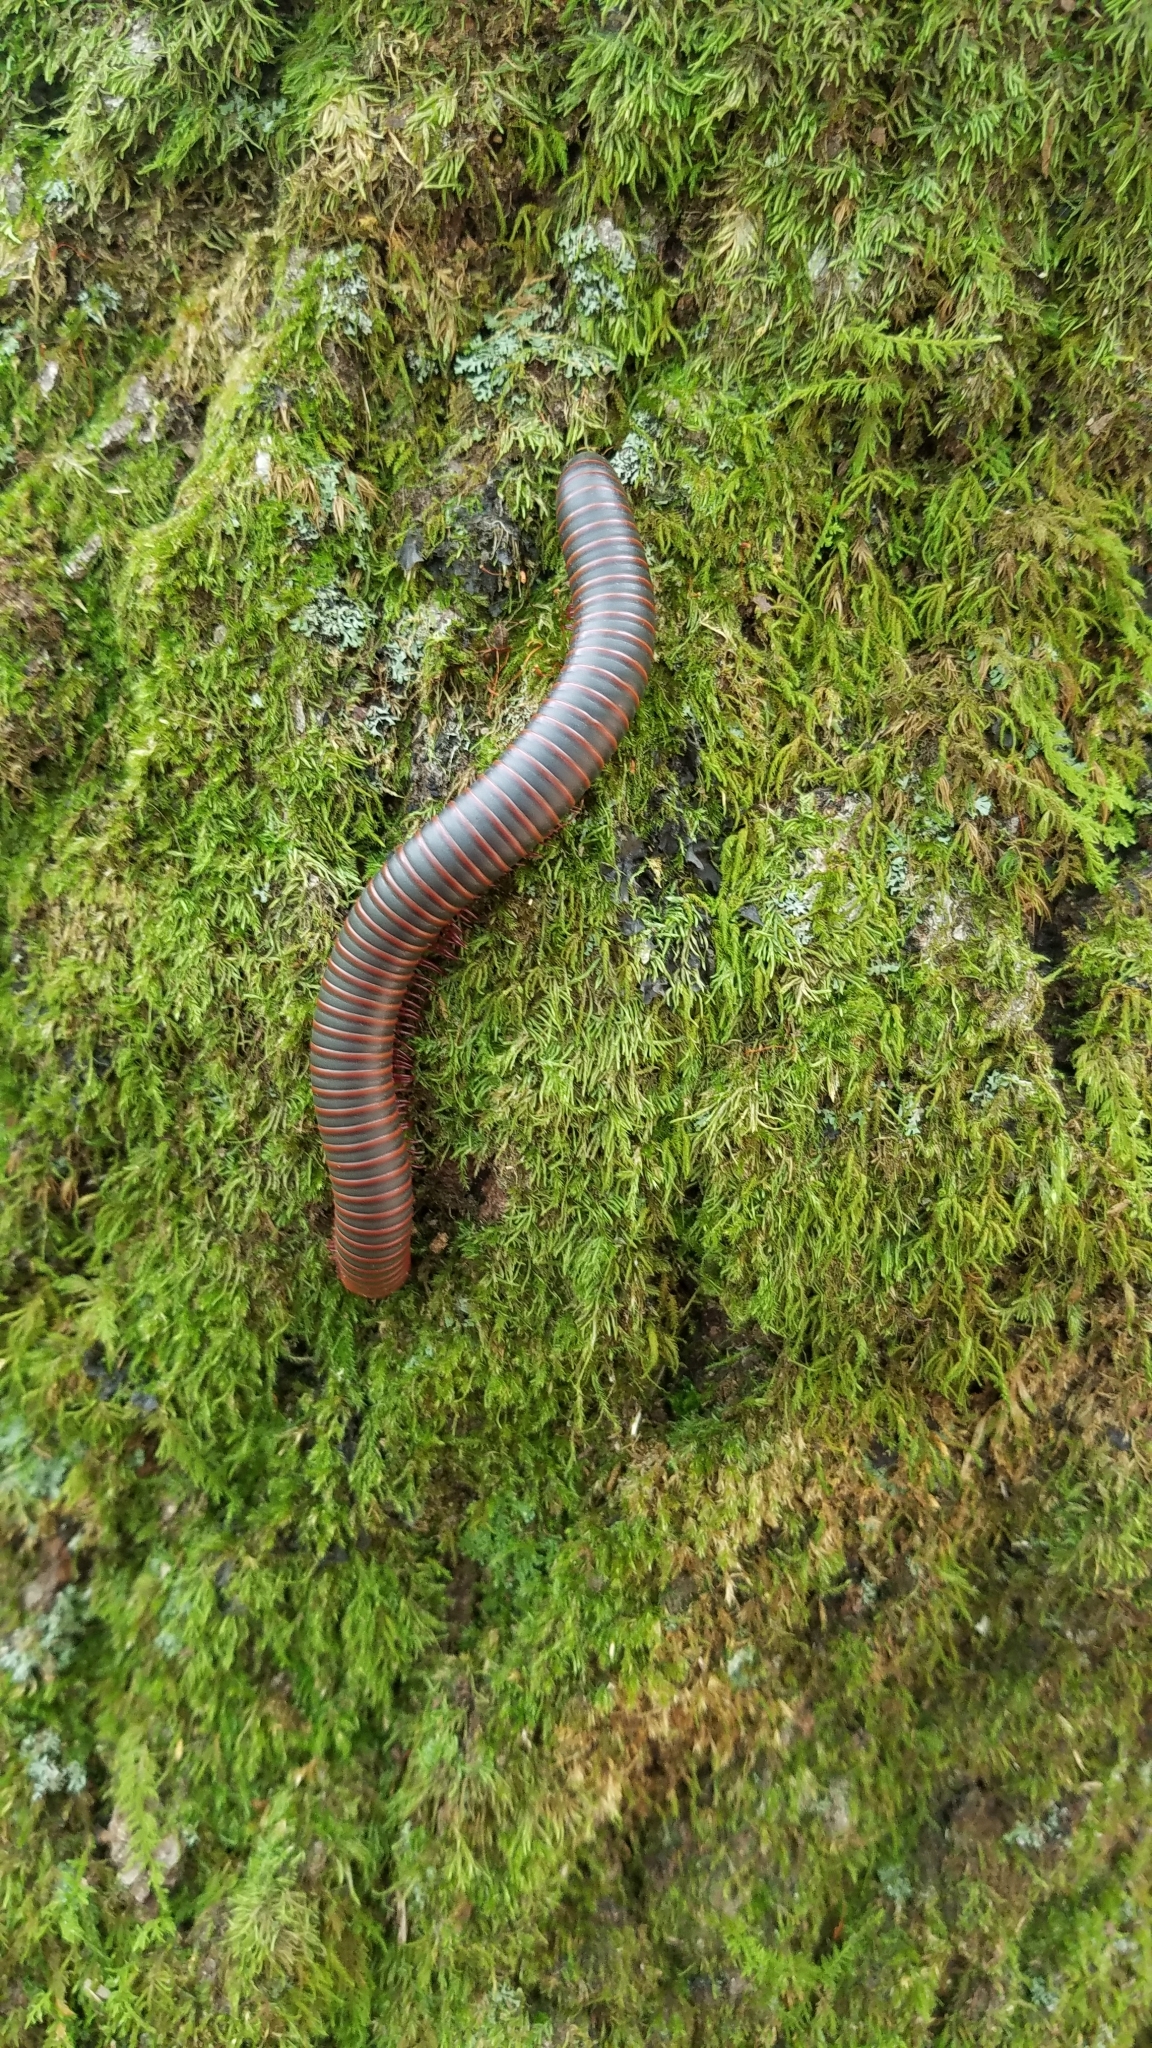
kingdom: Animalia
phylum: Arthropoda
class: Diplopoda
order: Spirobolida
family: Spirobolidae
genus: Narceus
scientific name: Narceus
